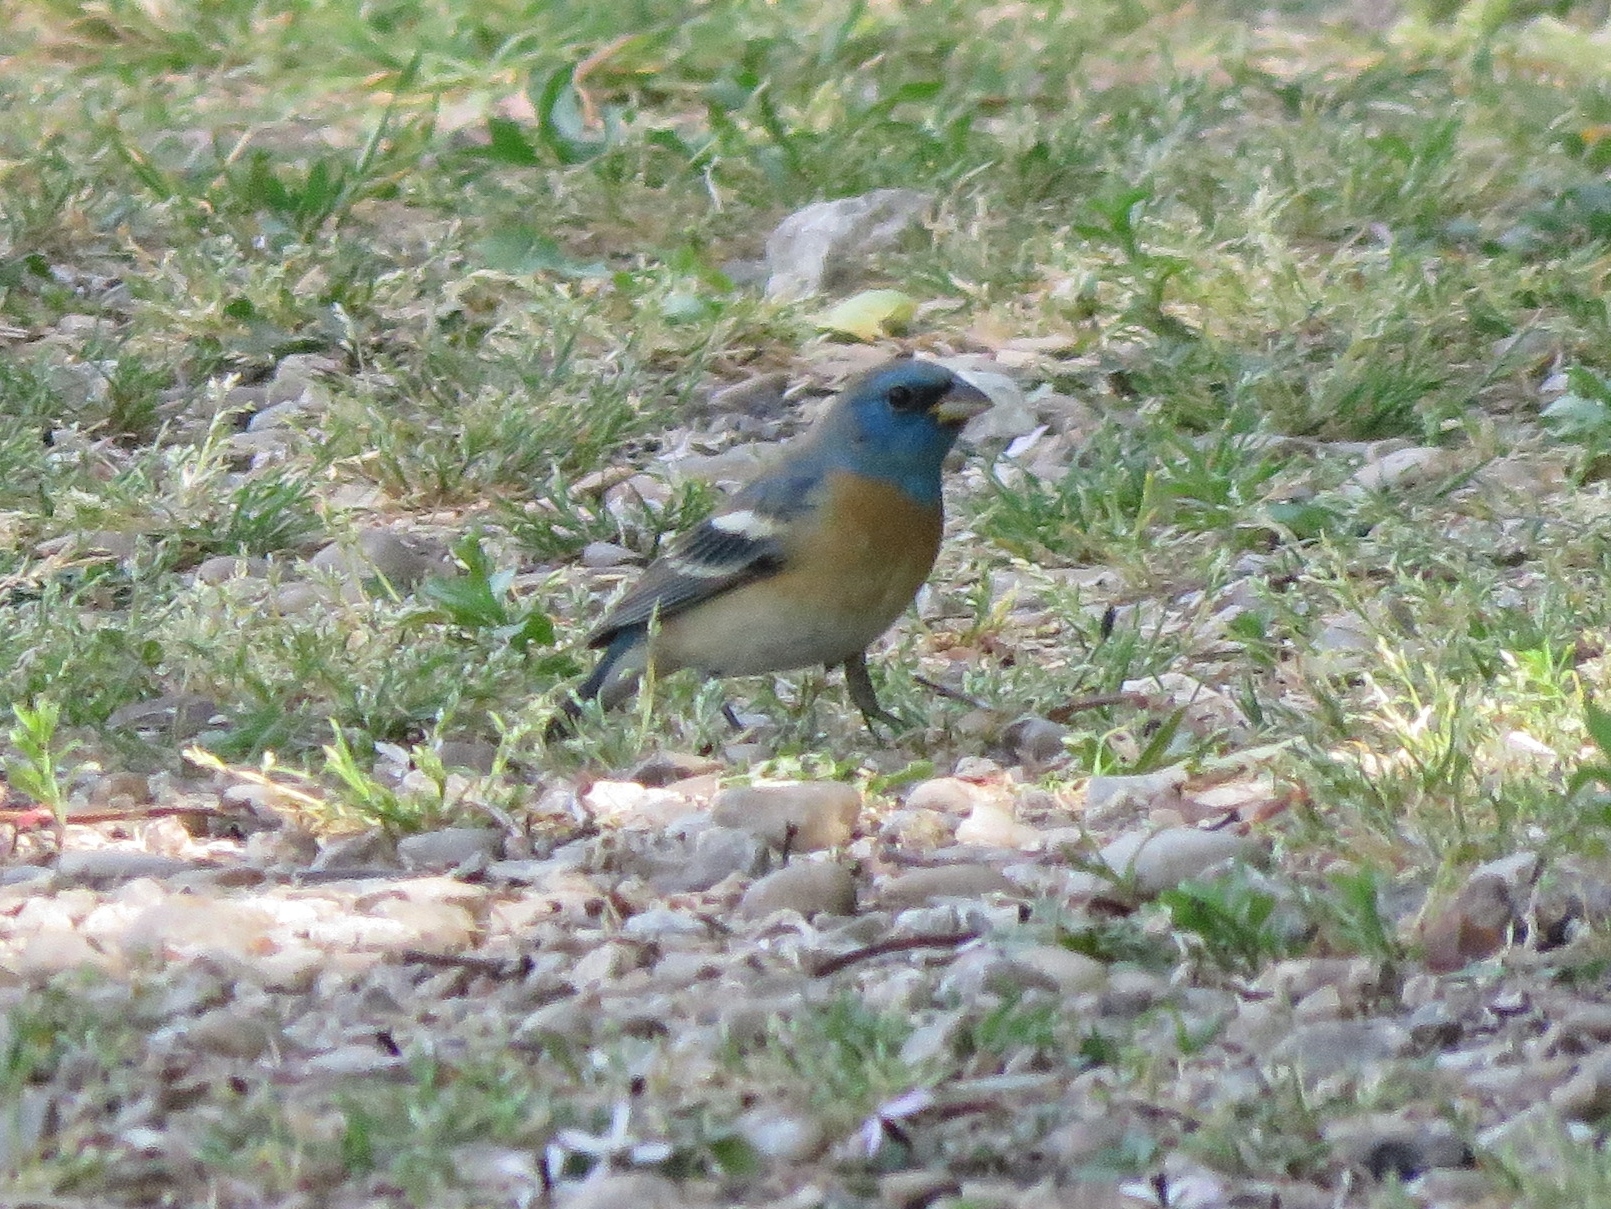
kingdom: Animalia
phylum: Chordata
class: Aves
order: Passeriformes
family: Cardinalidae
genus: Passerina
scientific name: Passerina amoena
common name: Lazuli bunting
